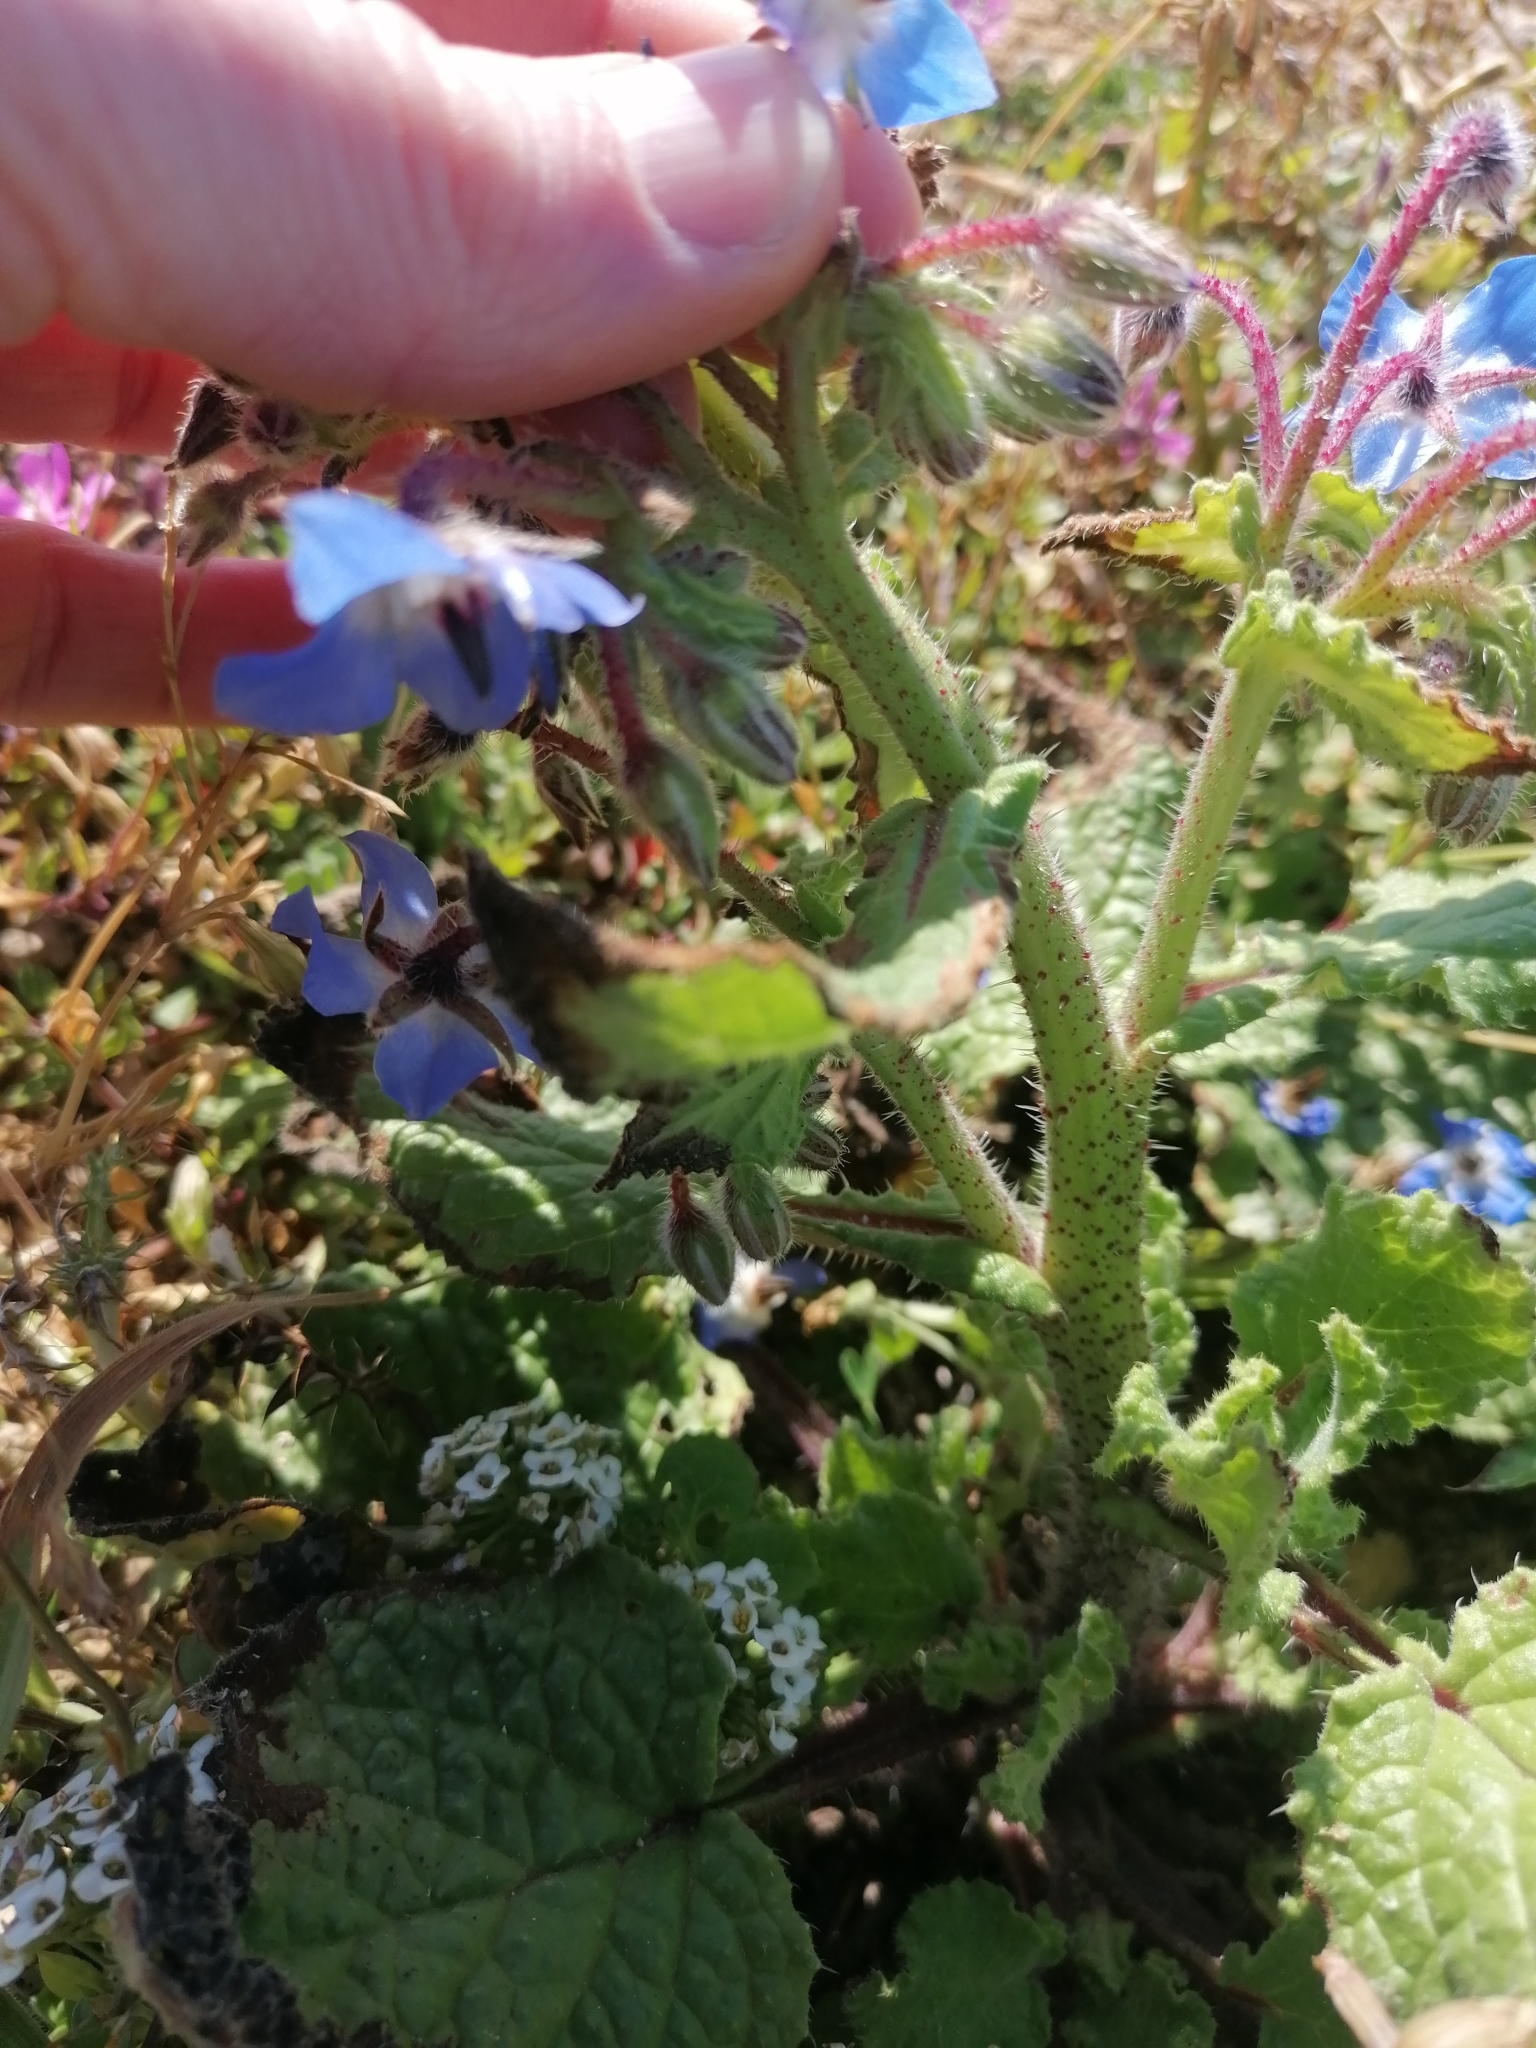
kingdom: Plantae
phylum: Tracheophyta
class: Magnoliopsida
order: Boraginales
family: Boraginaceae
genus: Borago
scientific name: Borago officinalis
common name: Borage
